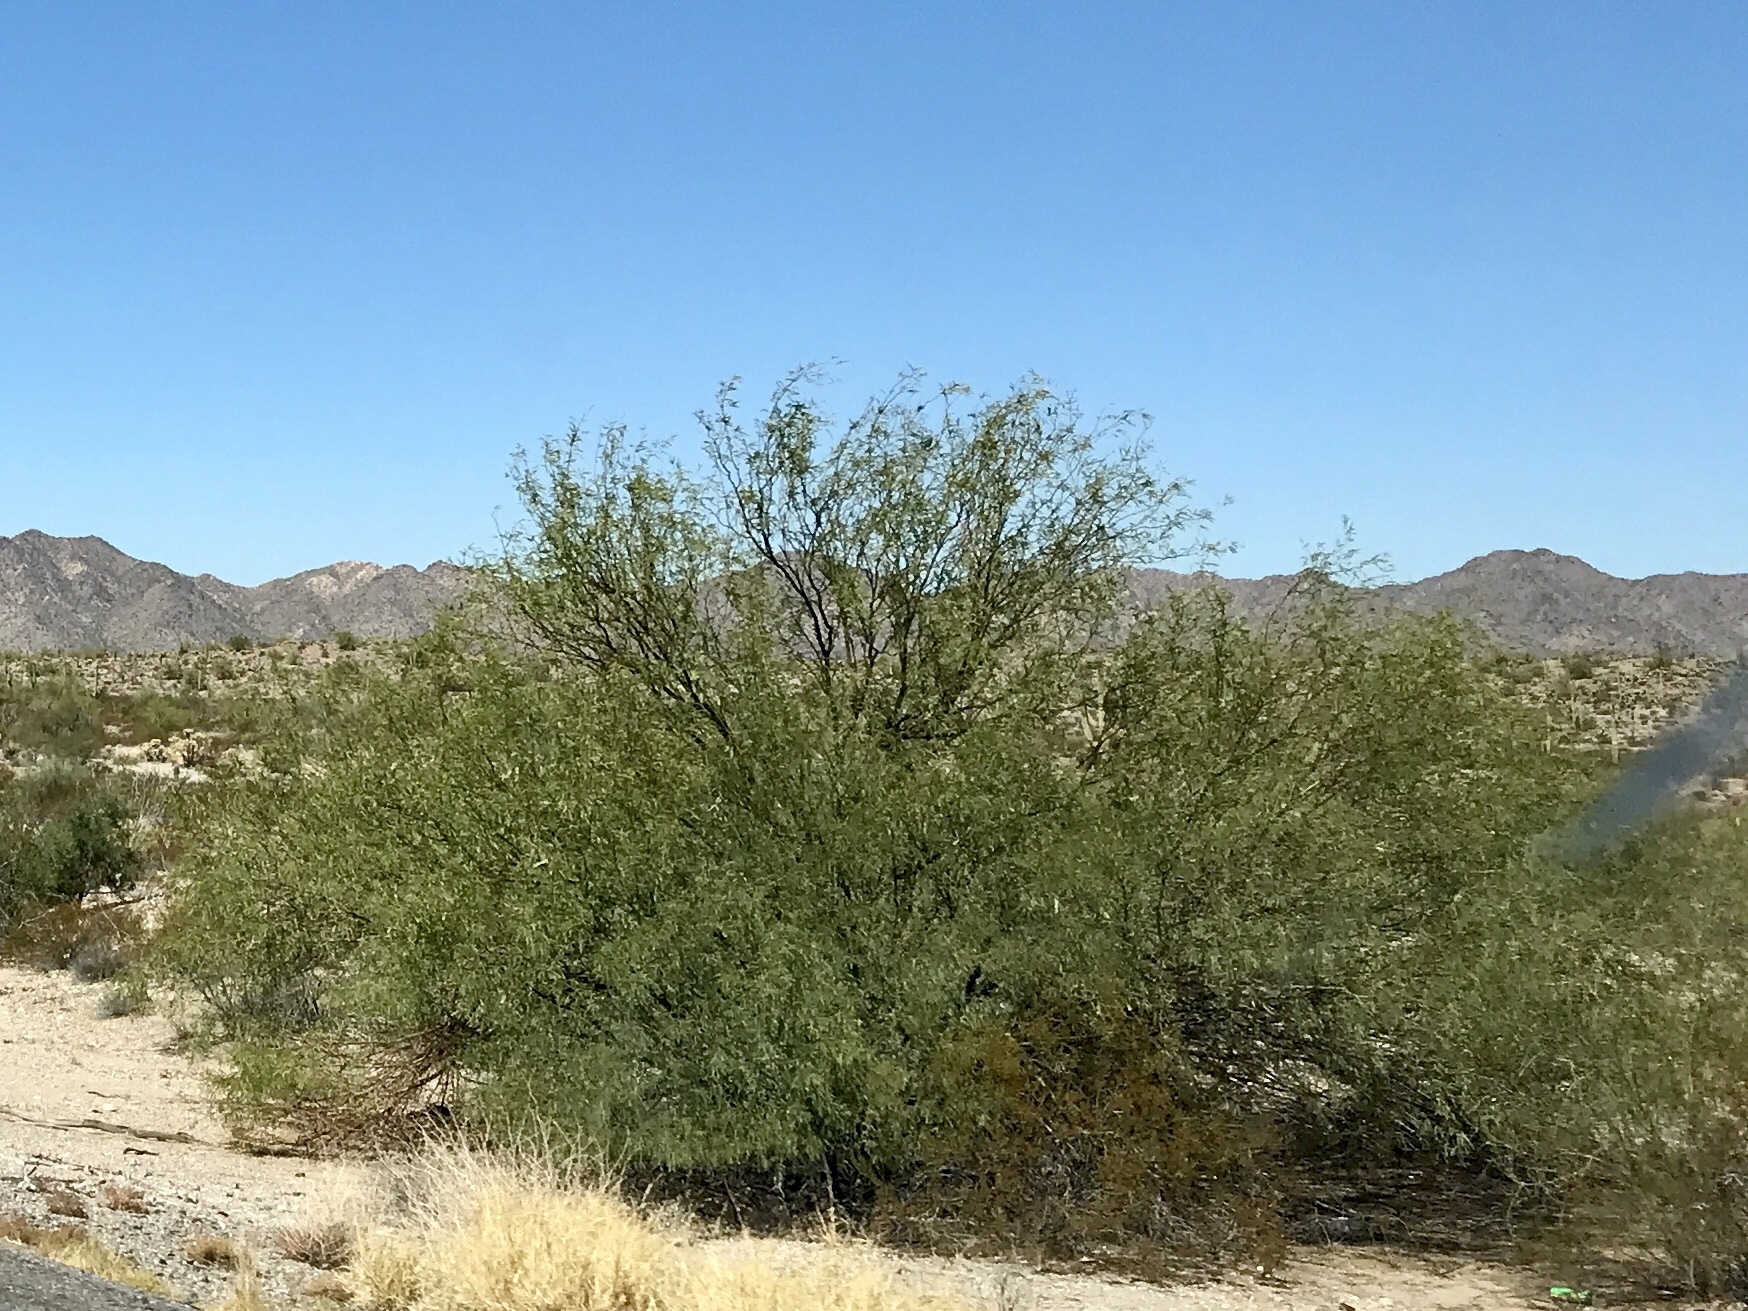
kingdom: Plantae
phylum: Tracheophyta
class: Magnoliopsida
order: Fabales
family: Fabaceae
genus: Prosopis
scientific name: Prosopis velutina
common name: Velvet mesquite
